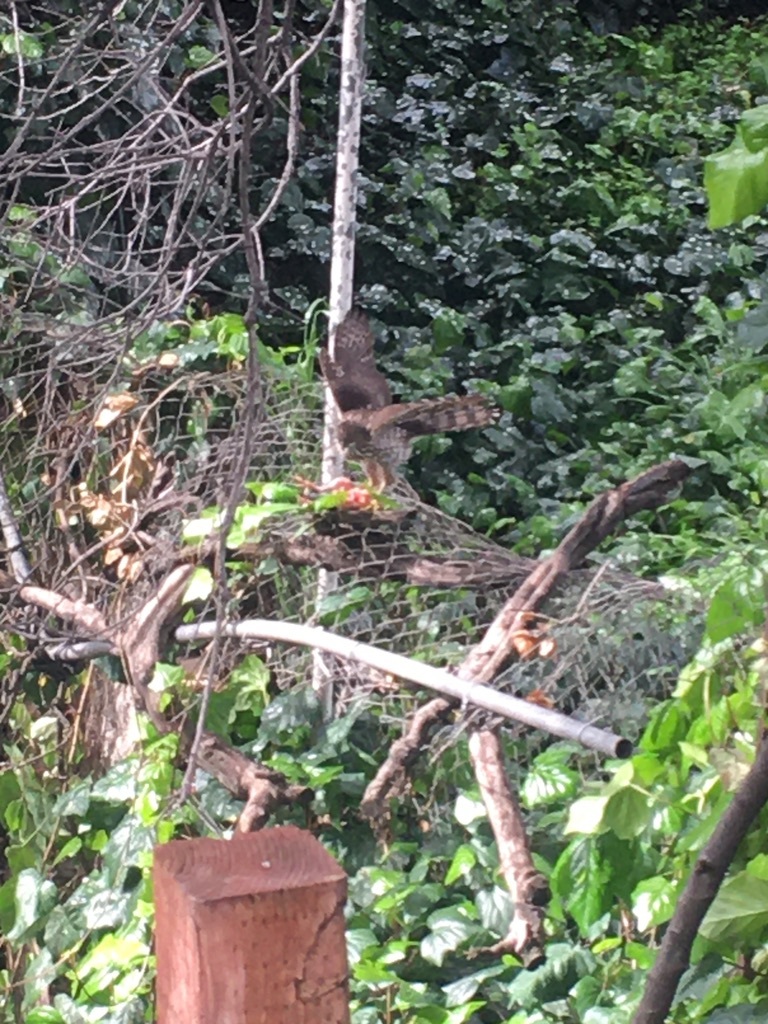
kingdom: Animalia
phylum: Chordata
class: Aves
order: Accipitriformes
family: Accipitridae
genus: Accipiter
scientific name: Accipiter cooperii
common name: Cooper's hawk
